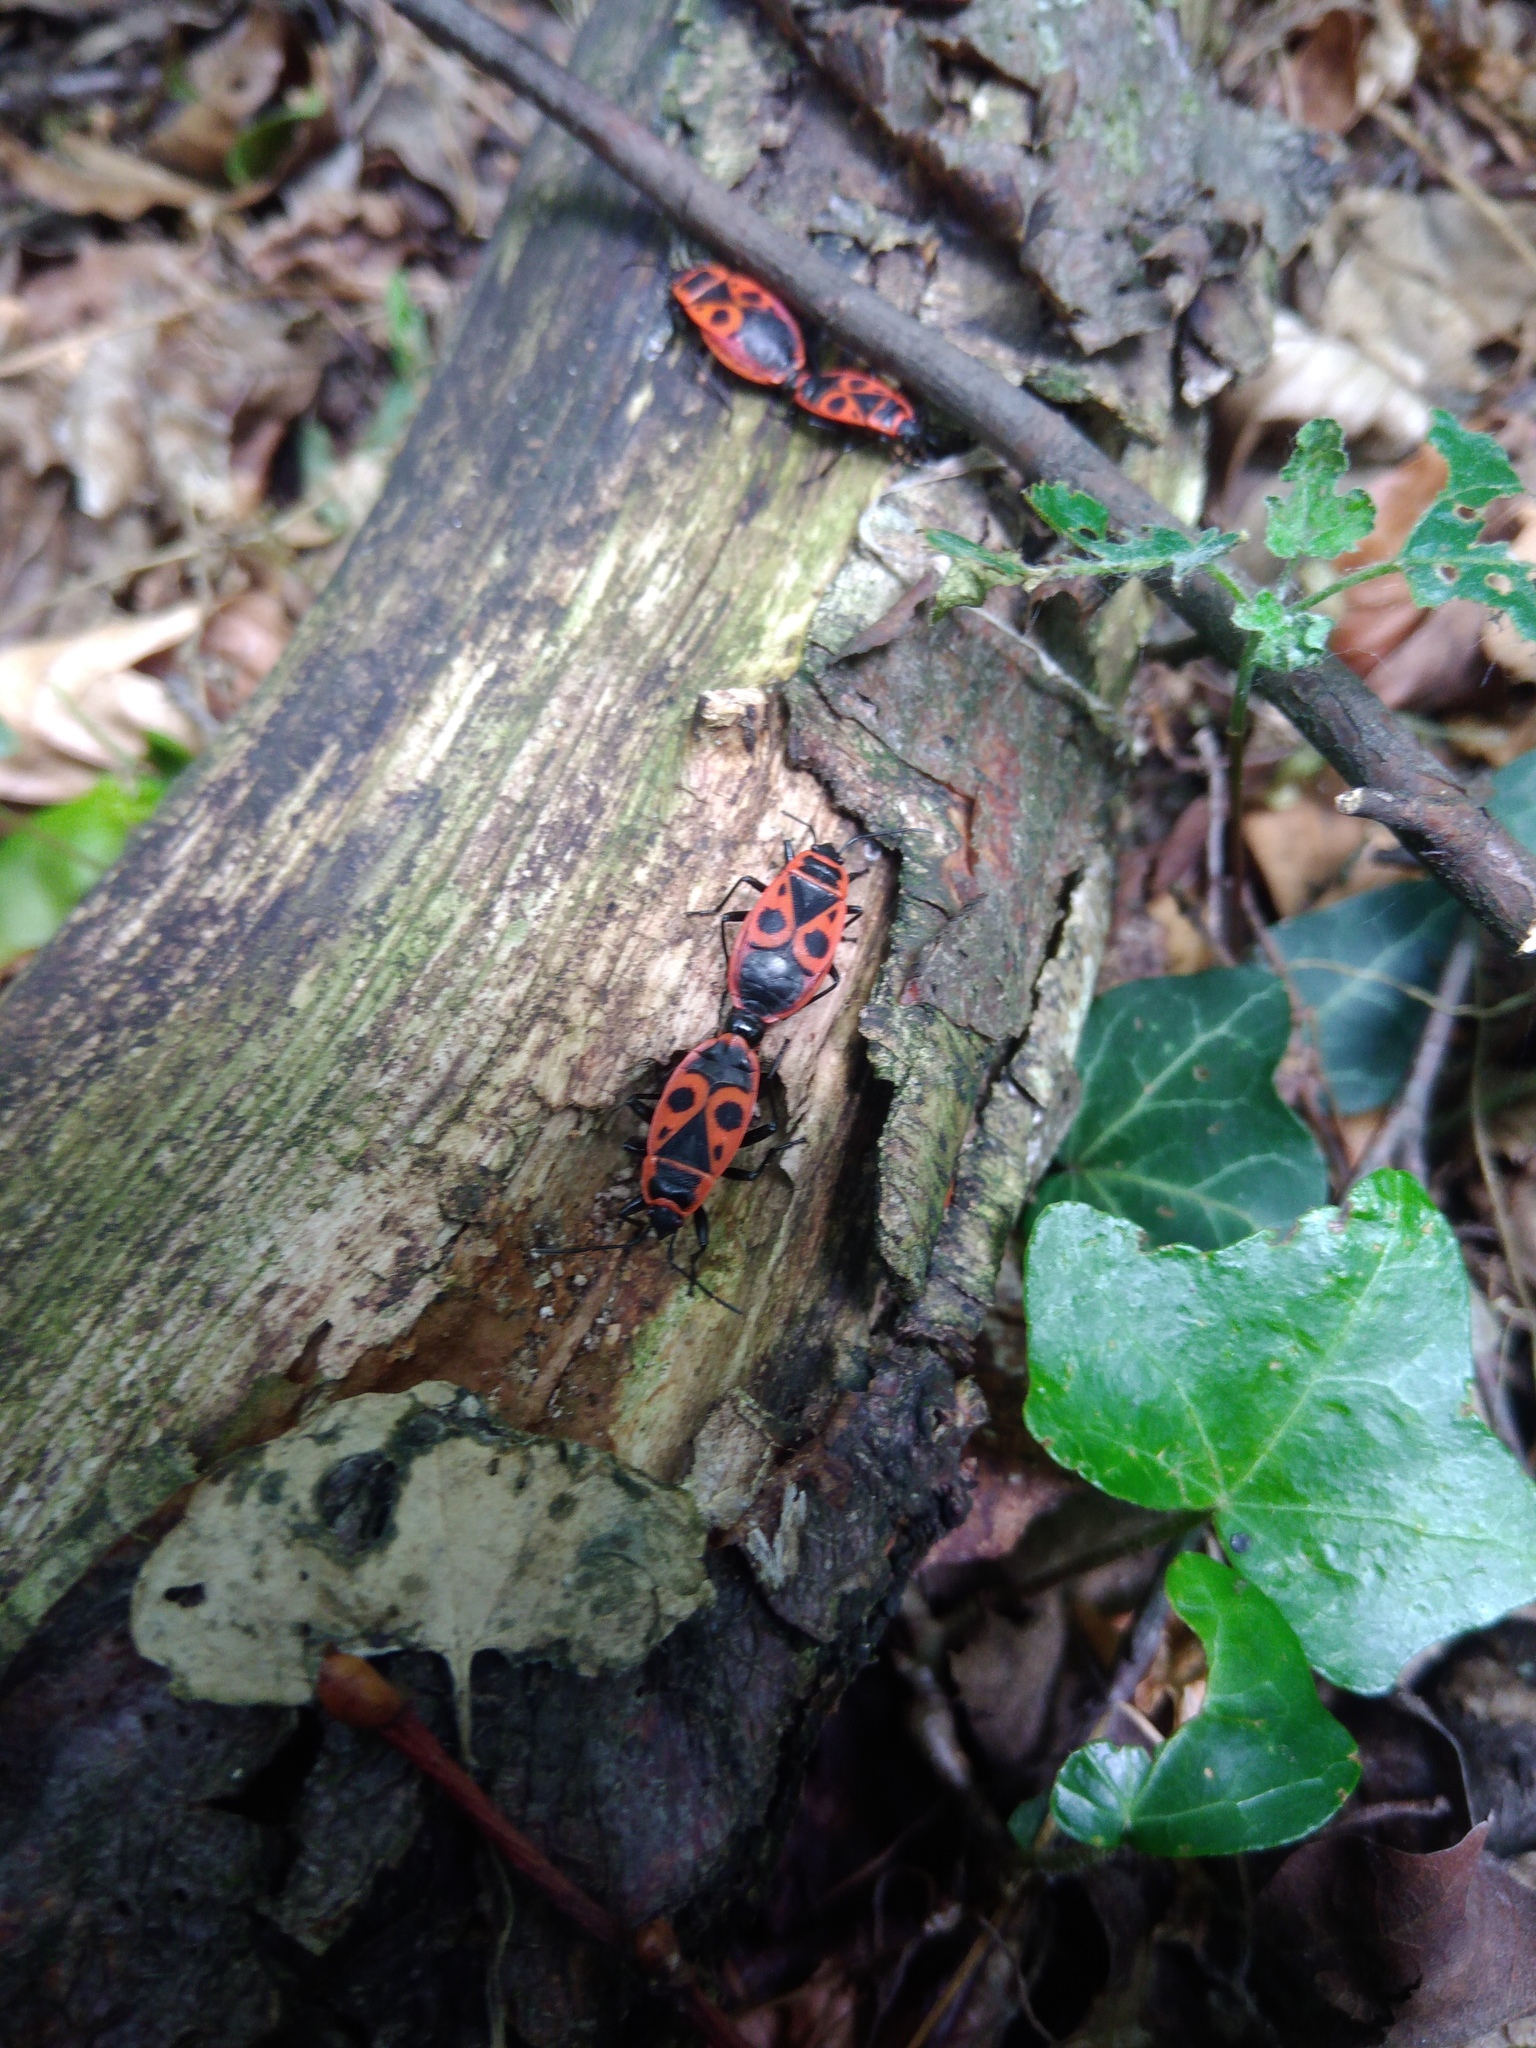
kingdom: Animalia
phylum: Arthropoda
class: Insecta
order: Hemiptera
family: Pyrrhocoridae
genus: Pyrrhocoris
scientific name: Pyrrhocoris apterus
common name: Firebug
